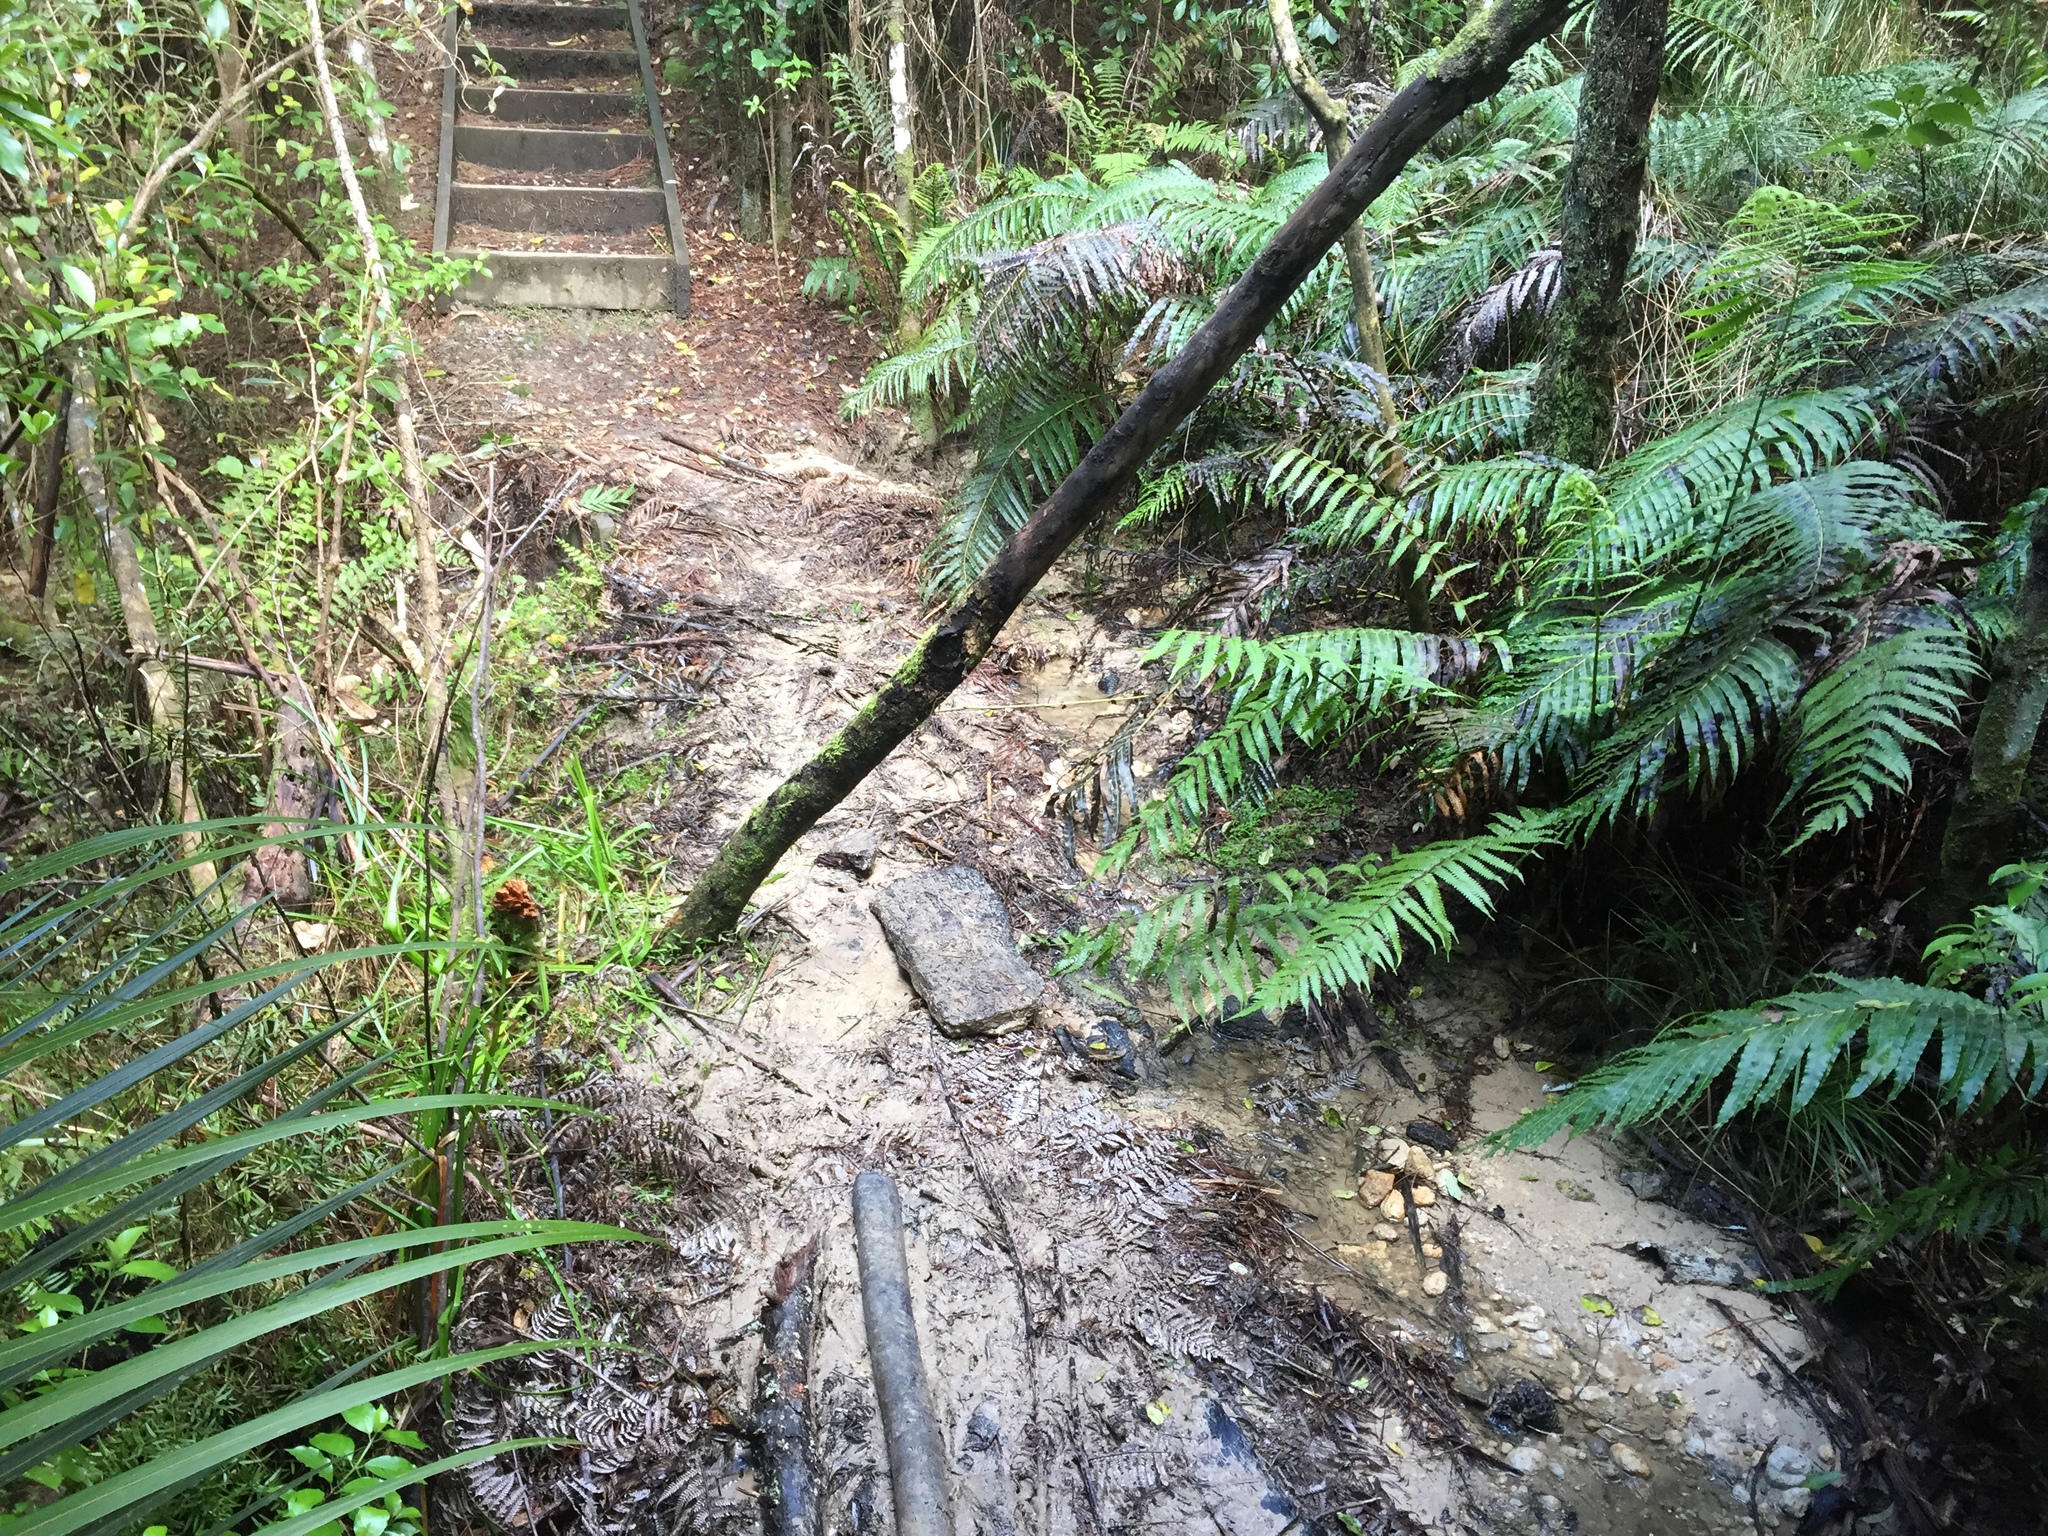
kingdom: Plantae
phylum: Tracheophyta
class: Polypodiopsida
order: Polypodiales
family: Blechnaceae
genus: Parablechnum
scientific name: Parablechnum novae-zelandiae
